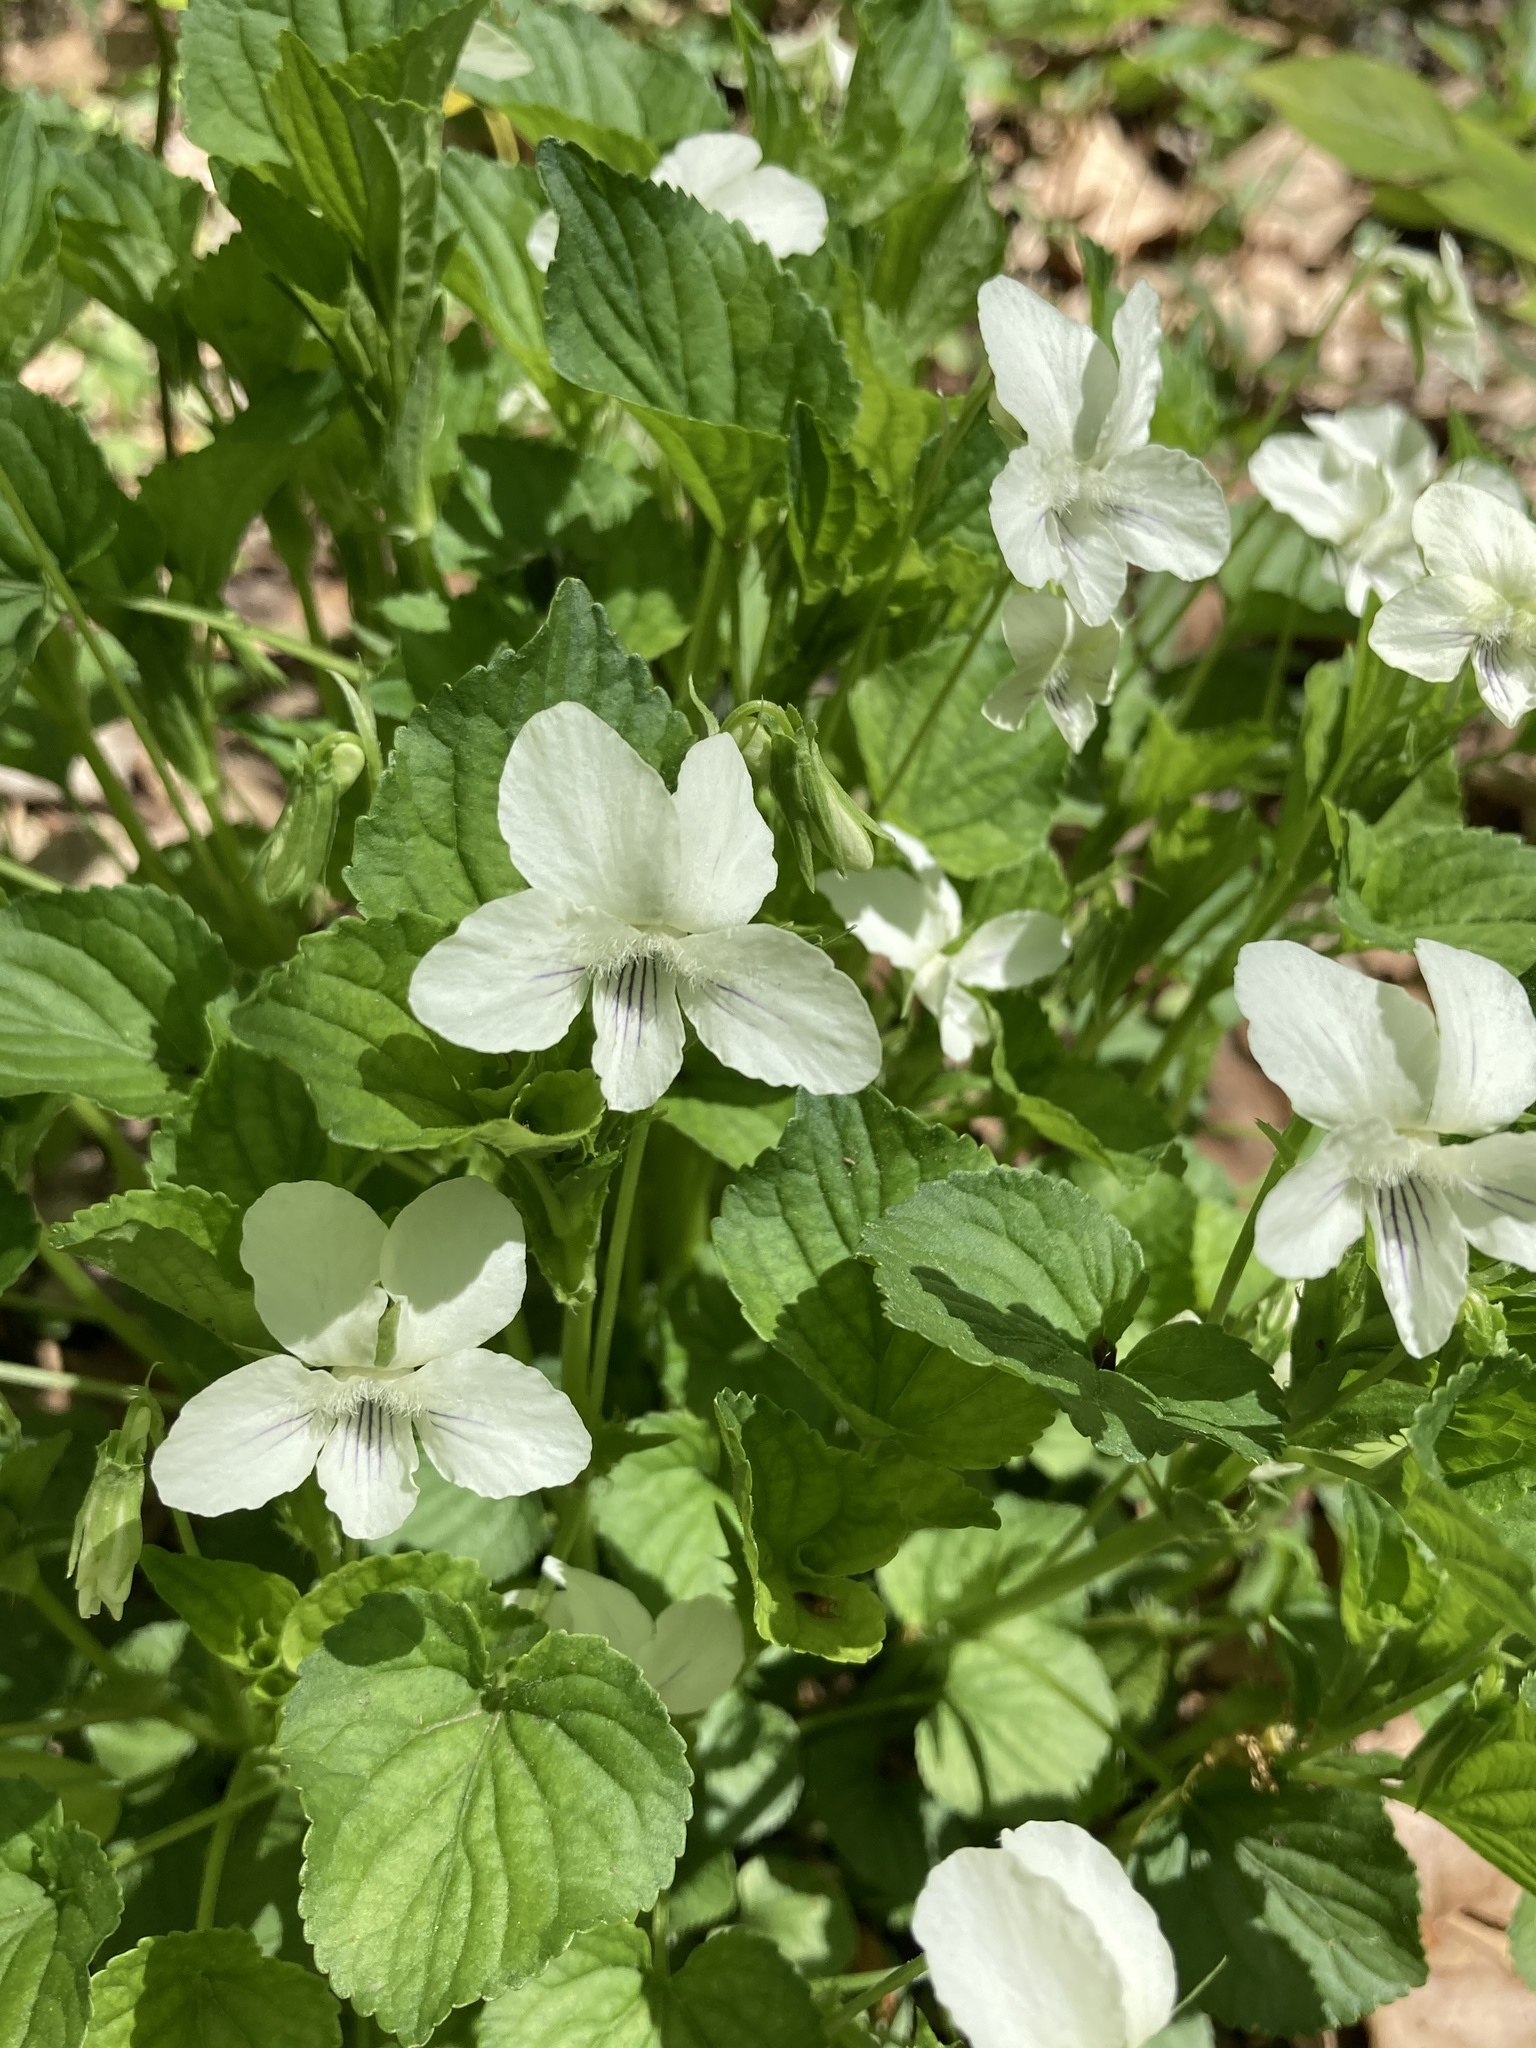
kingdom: Plantae
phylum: Tracheophyta
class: Magnoliopsida
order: Malpighiales
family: Violaceae
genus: Viola
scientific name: Viola striata
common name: Cream violet
